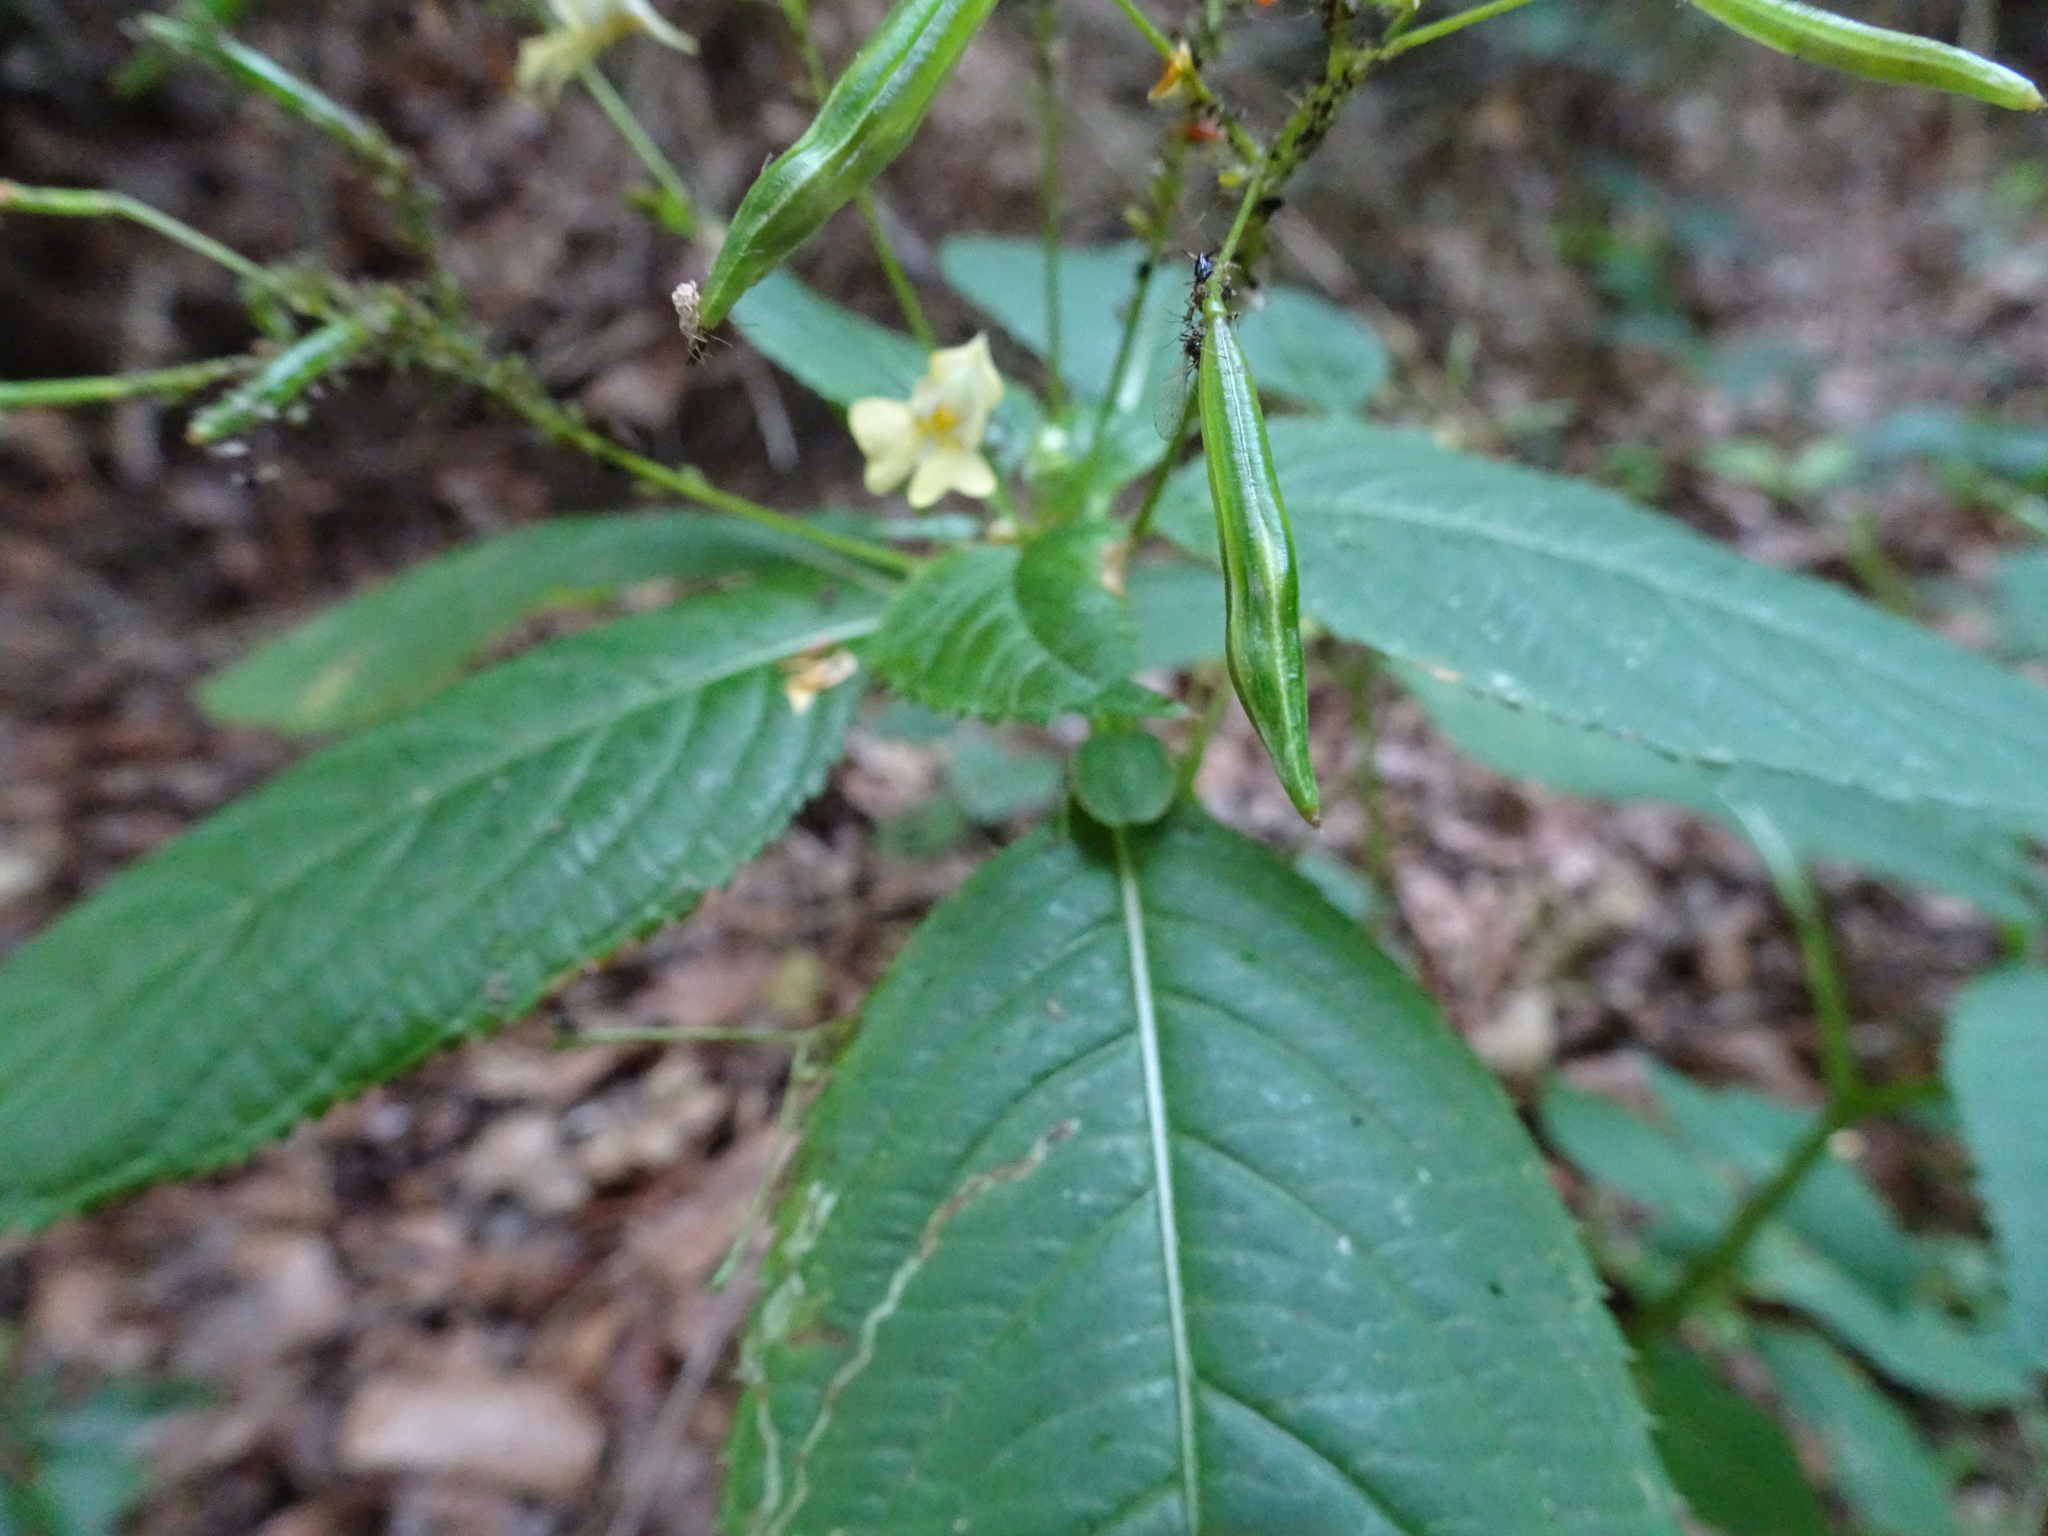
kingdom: Plantae
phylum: Tracheophyta
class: Magnoliopsida
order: Ericales
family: Balsaminaceae
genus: Impatiens
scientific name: Impatiens parviflora
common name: Small balsam
